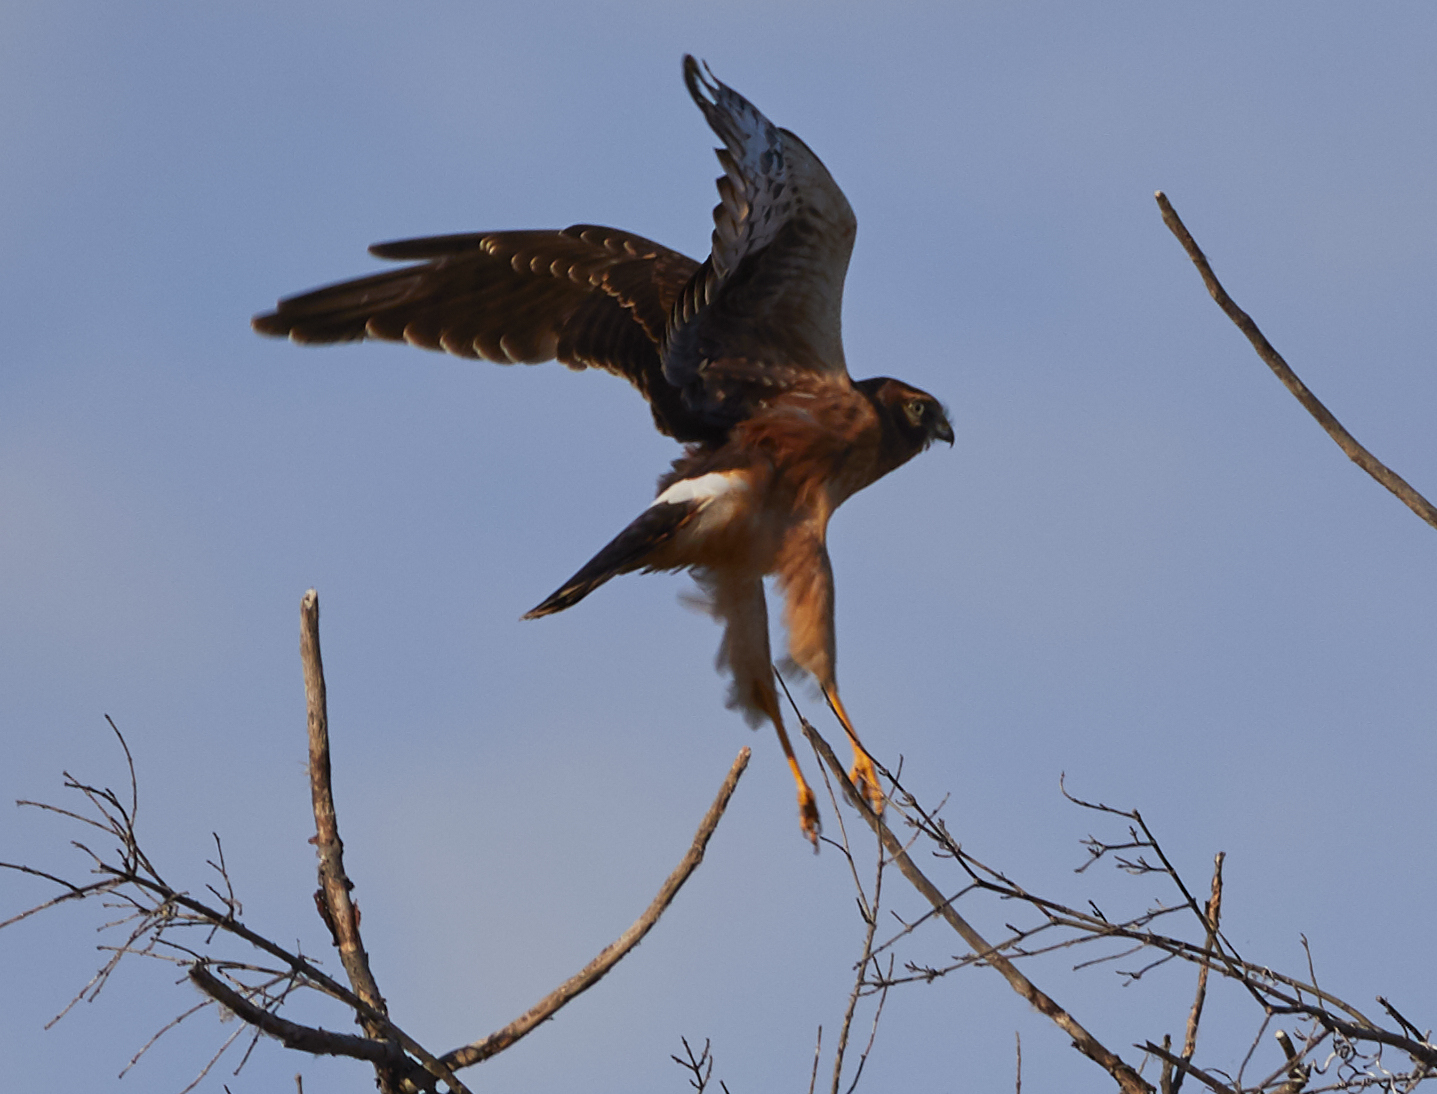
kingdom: Animalia
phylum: Chordata
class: Aves
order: Accipitriformes
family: Accipitridae
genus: Circus
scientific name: Circus cyaneus
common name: Hen harrier
